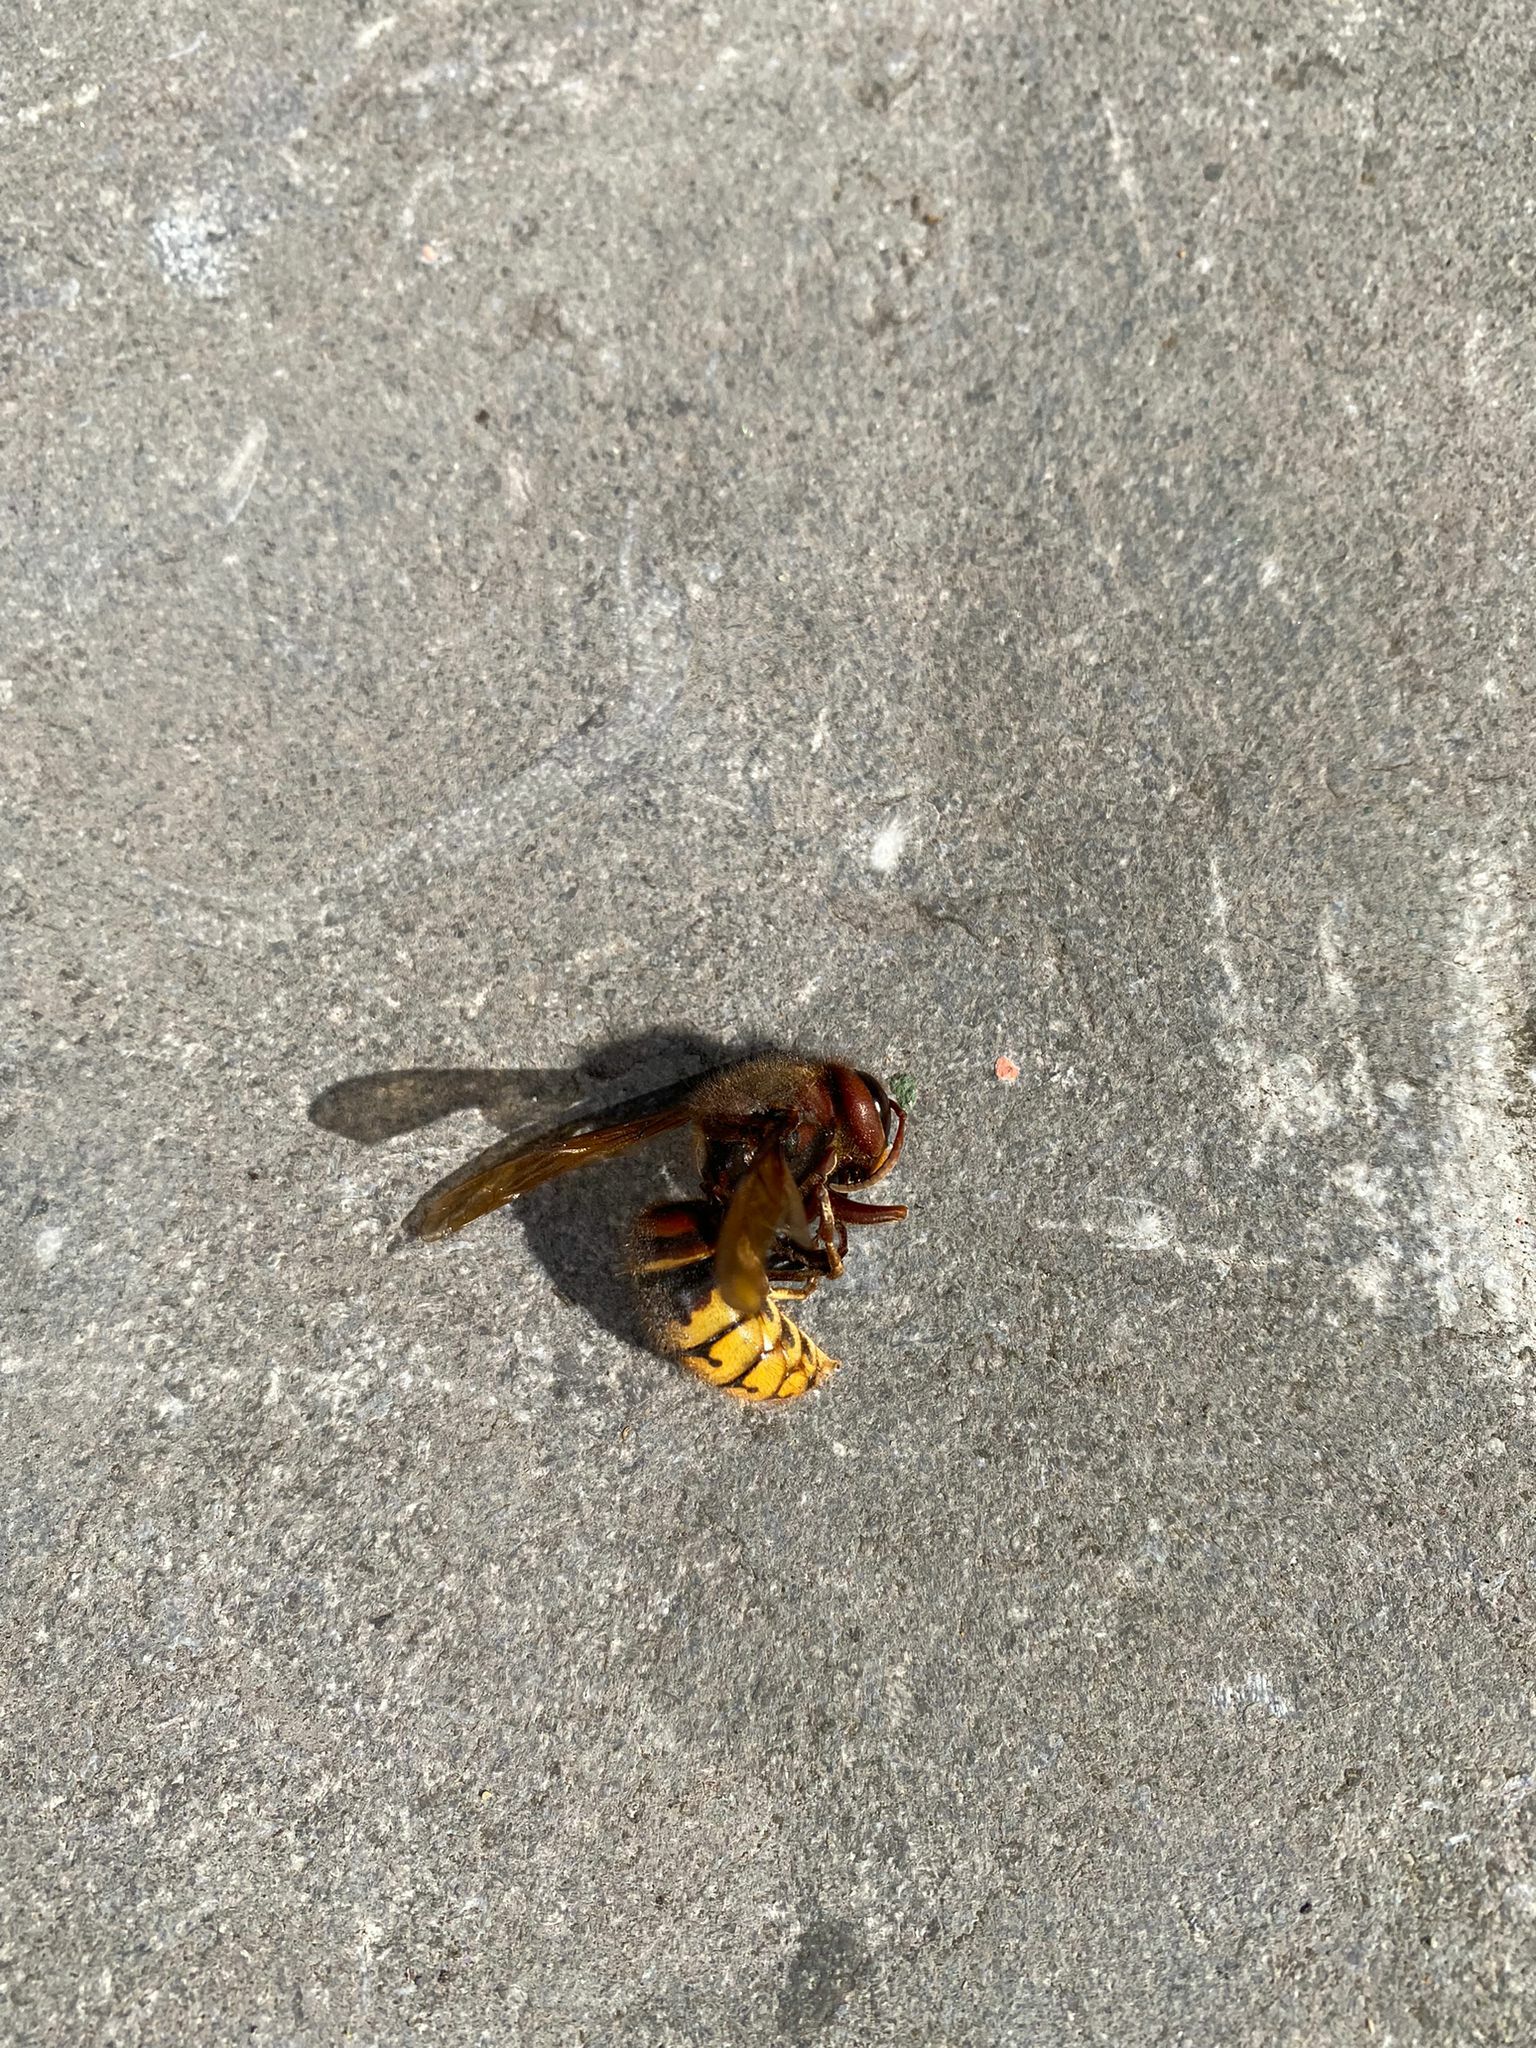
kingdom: Animalia
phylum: Arthropoda
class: Insecta
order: Hymenoptera
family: Vespidae
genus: Vespa
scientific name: Vespa crabro
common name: Hornet
